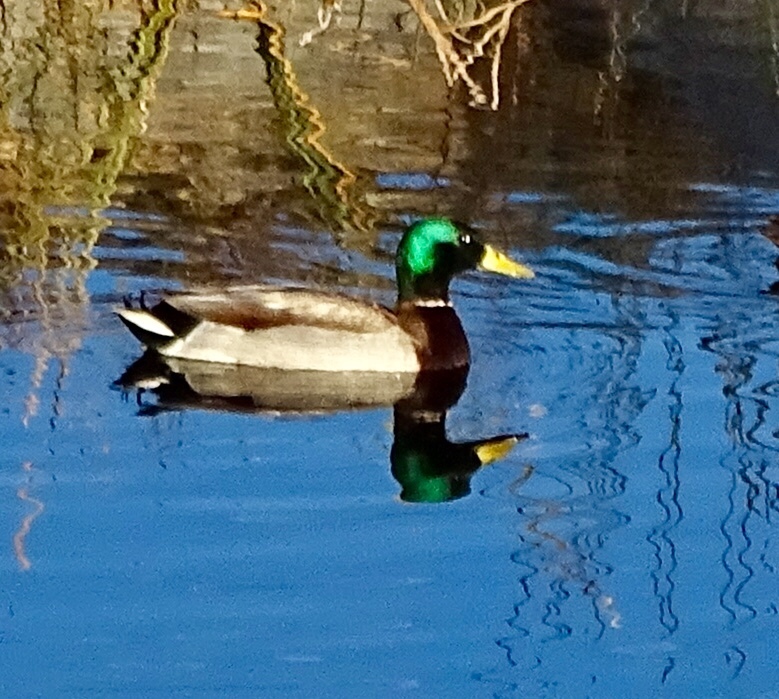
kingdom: Animalia
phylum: Chordata
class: Aves
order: Anseriformes
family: Anatidae
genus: Anas
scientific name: Anas platyrhynchos
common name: Mallard
